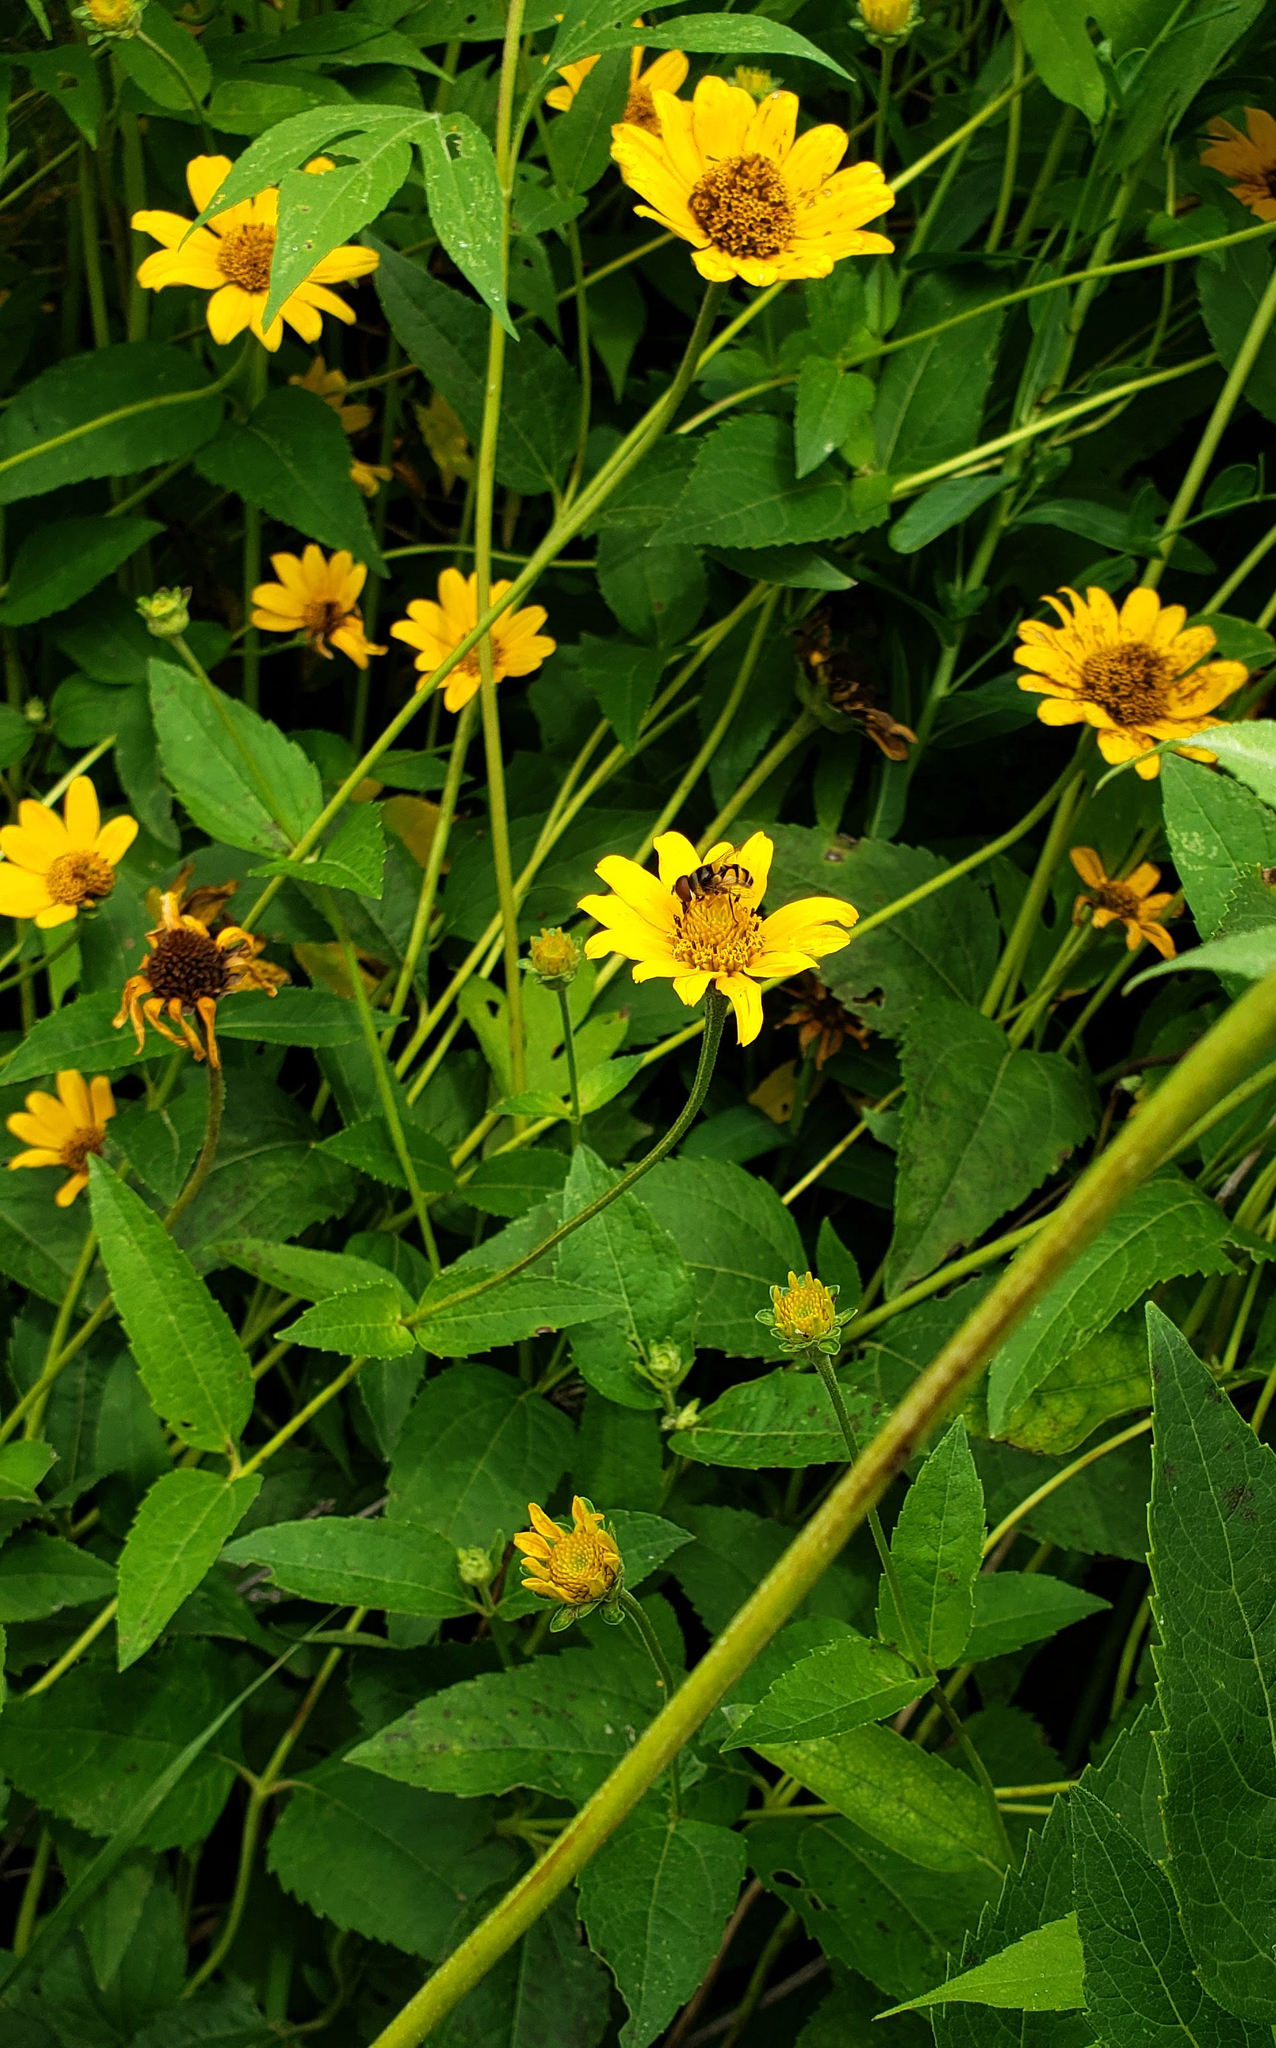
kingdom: Plantae
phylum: Tracheophyta
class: Magnoliopsida
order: Asterales
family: Asteraceae
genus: Heliopsis
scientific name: Heliopsis helianthoides
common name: False sunflower
